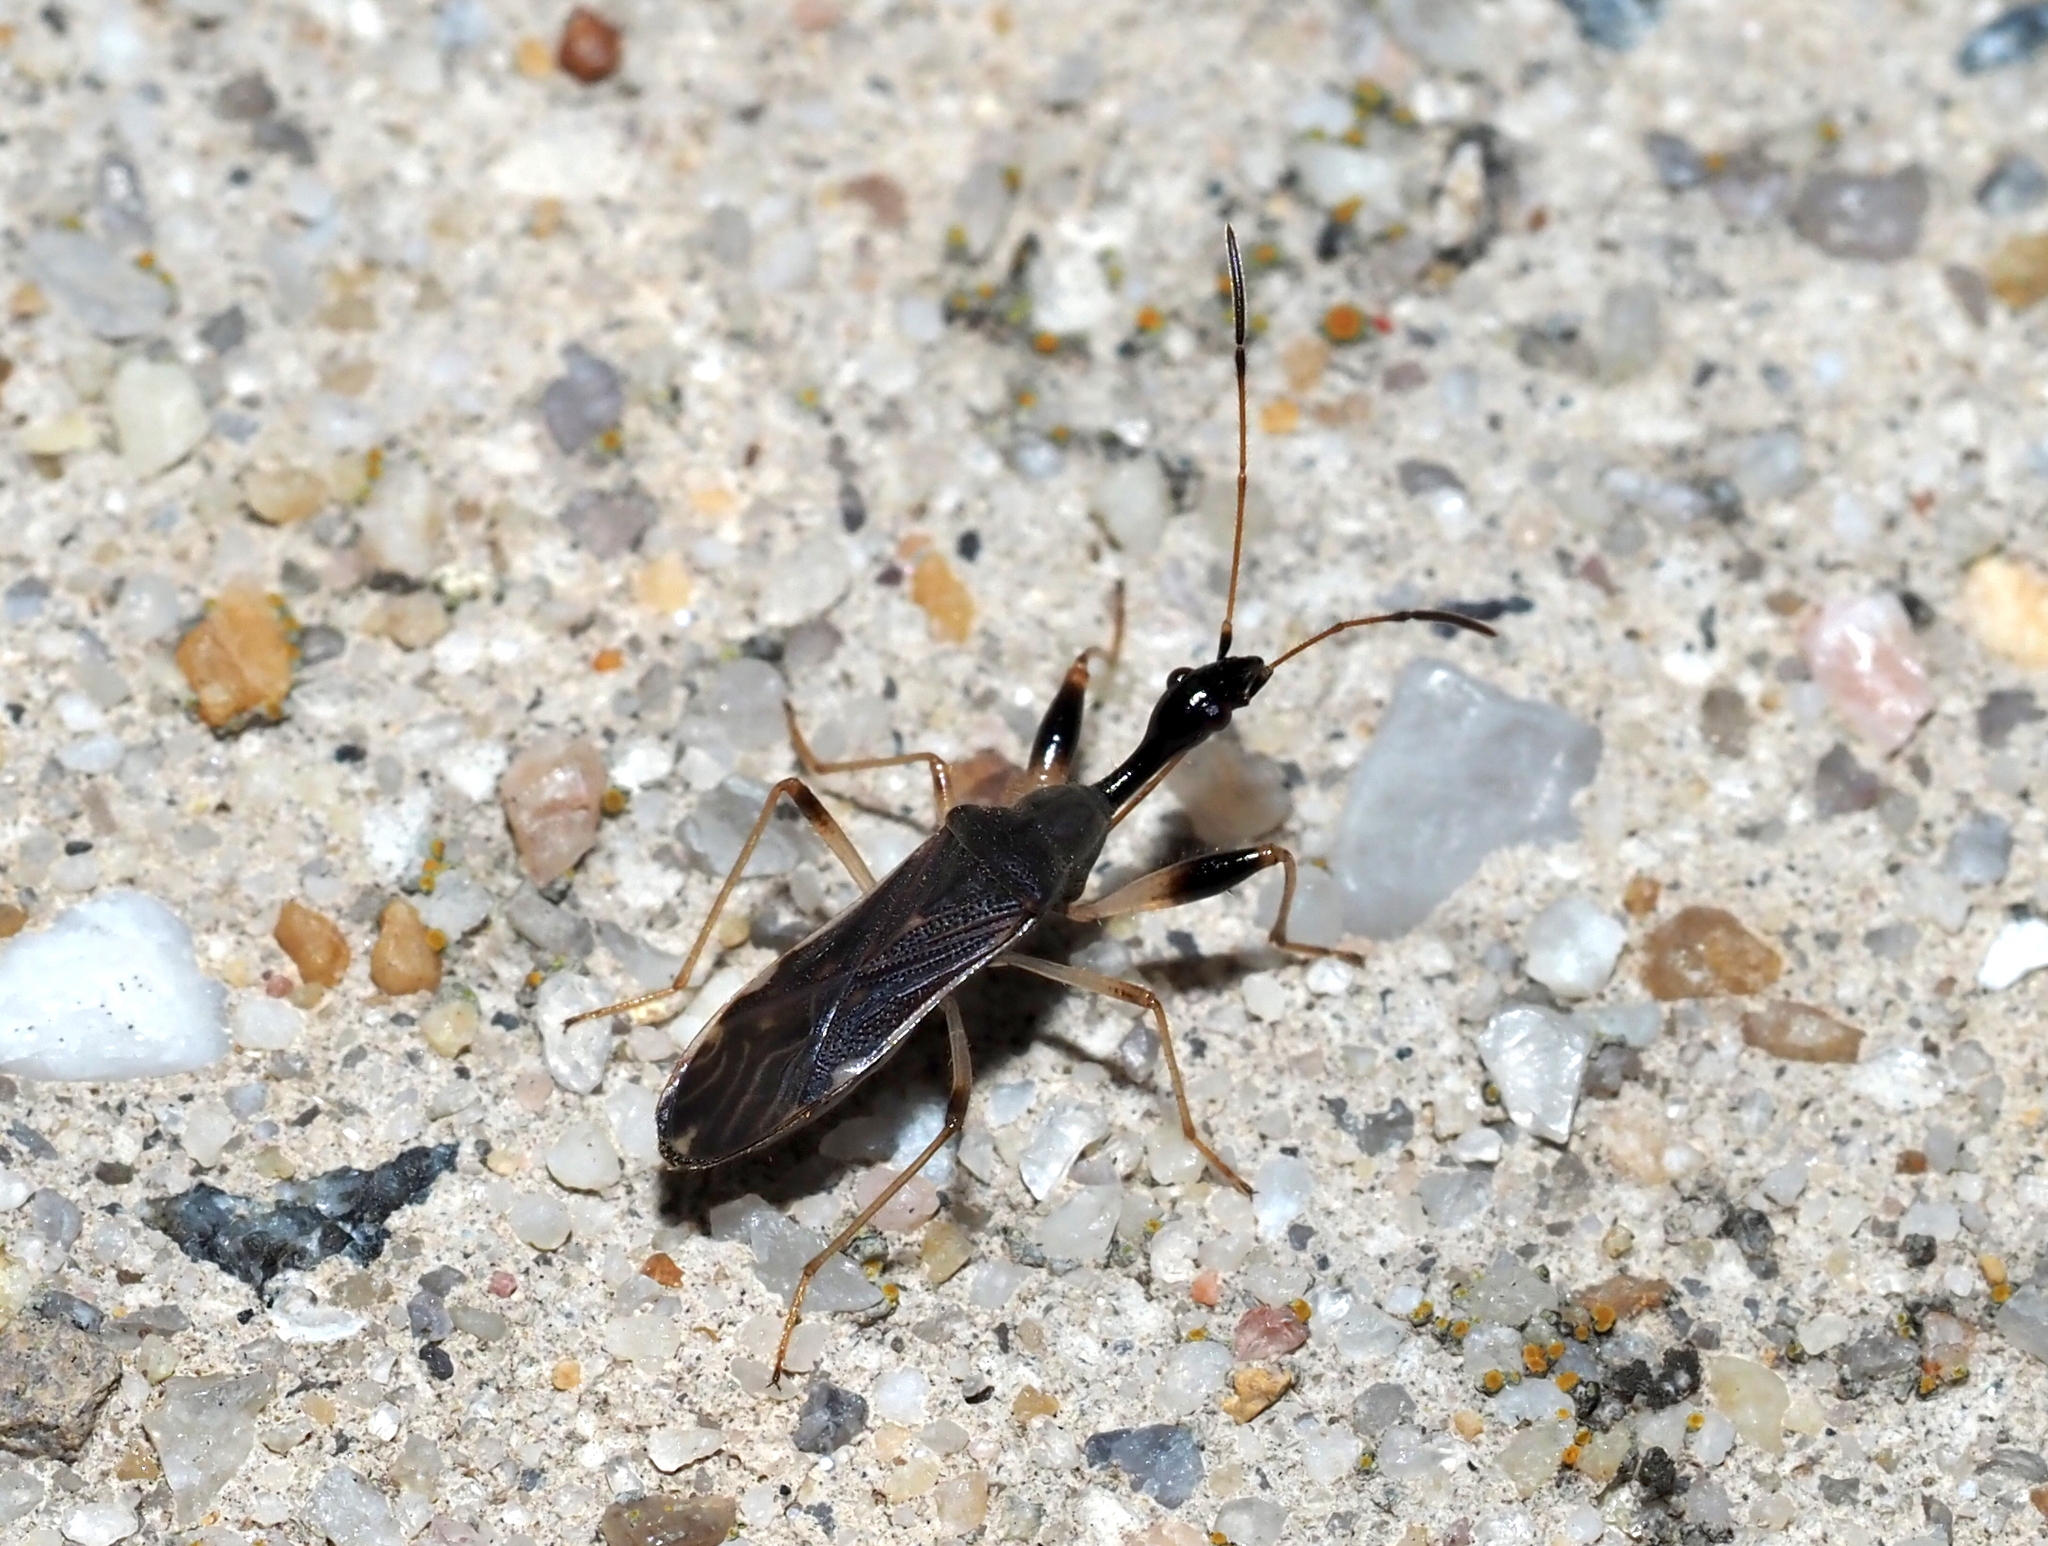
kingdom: Animalia
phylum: Arthropoda
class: Insecta
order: Hemiptera
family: Rhyparochromidae
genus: Myodocha
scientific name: Myodocha serripes
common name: Long-necked seed bug
